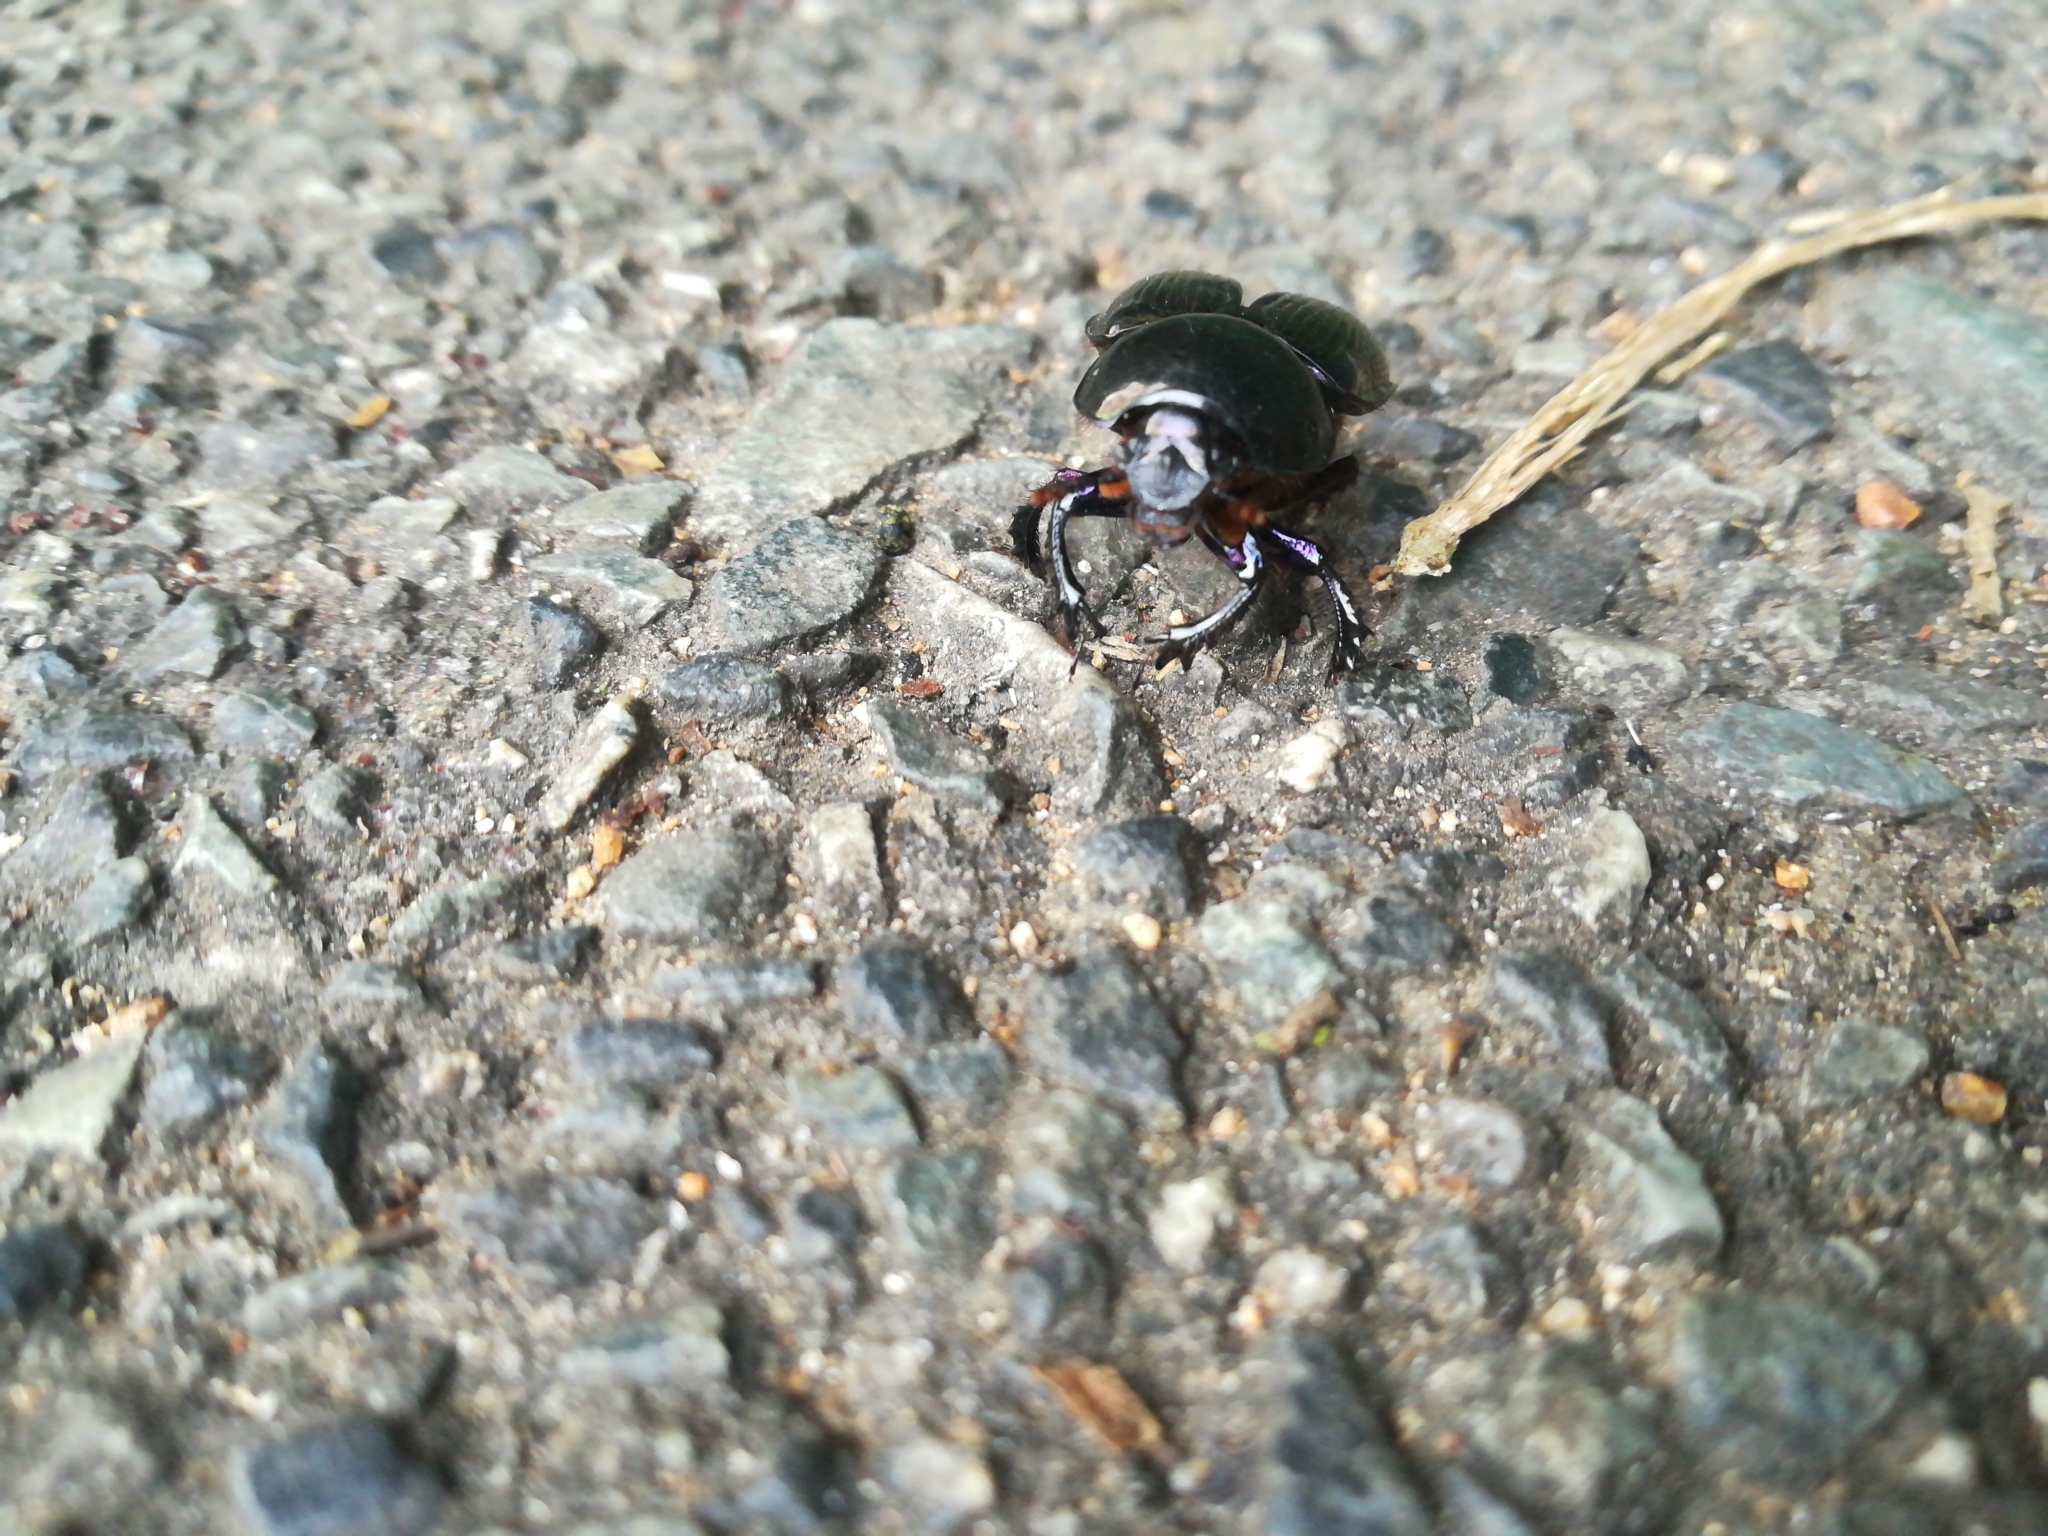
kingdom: Animalia
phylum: Arthropoda
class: Insecta
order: Coleoptera
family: Geotrupidae
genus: Phelotrupes
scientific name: Phelotrupes laevistriatus
